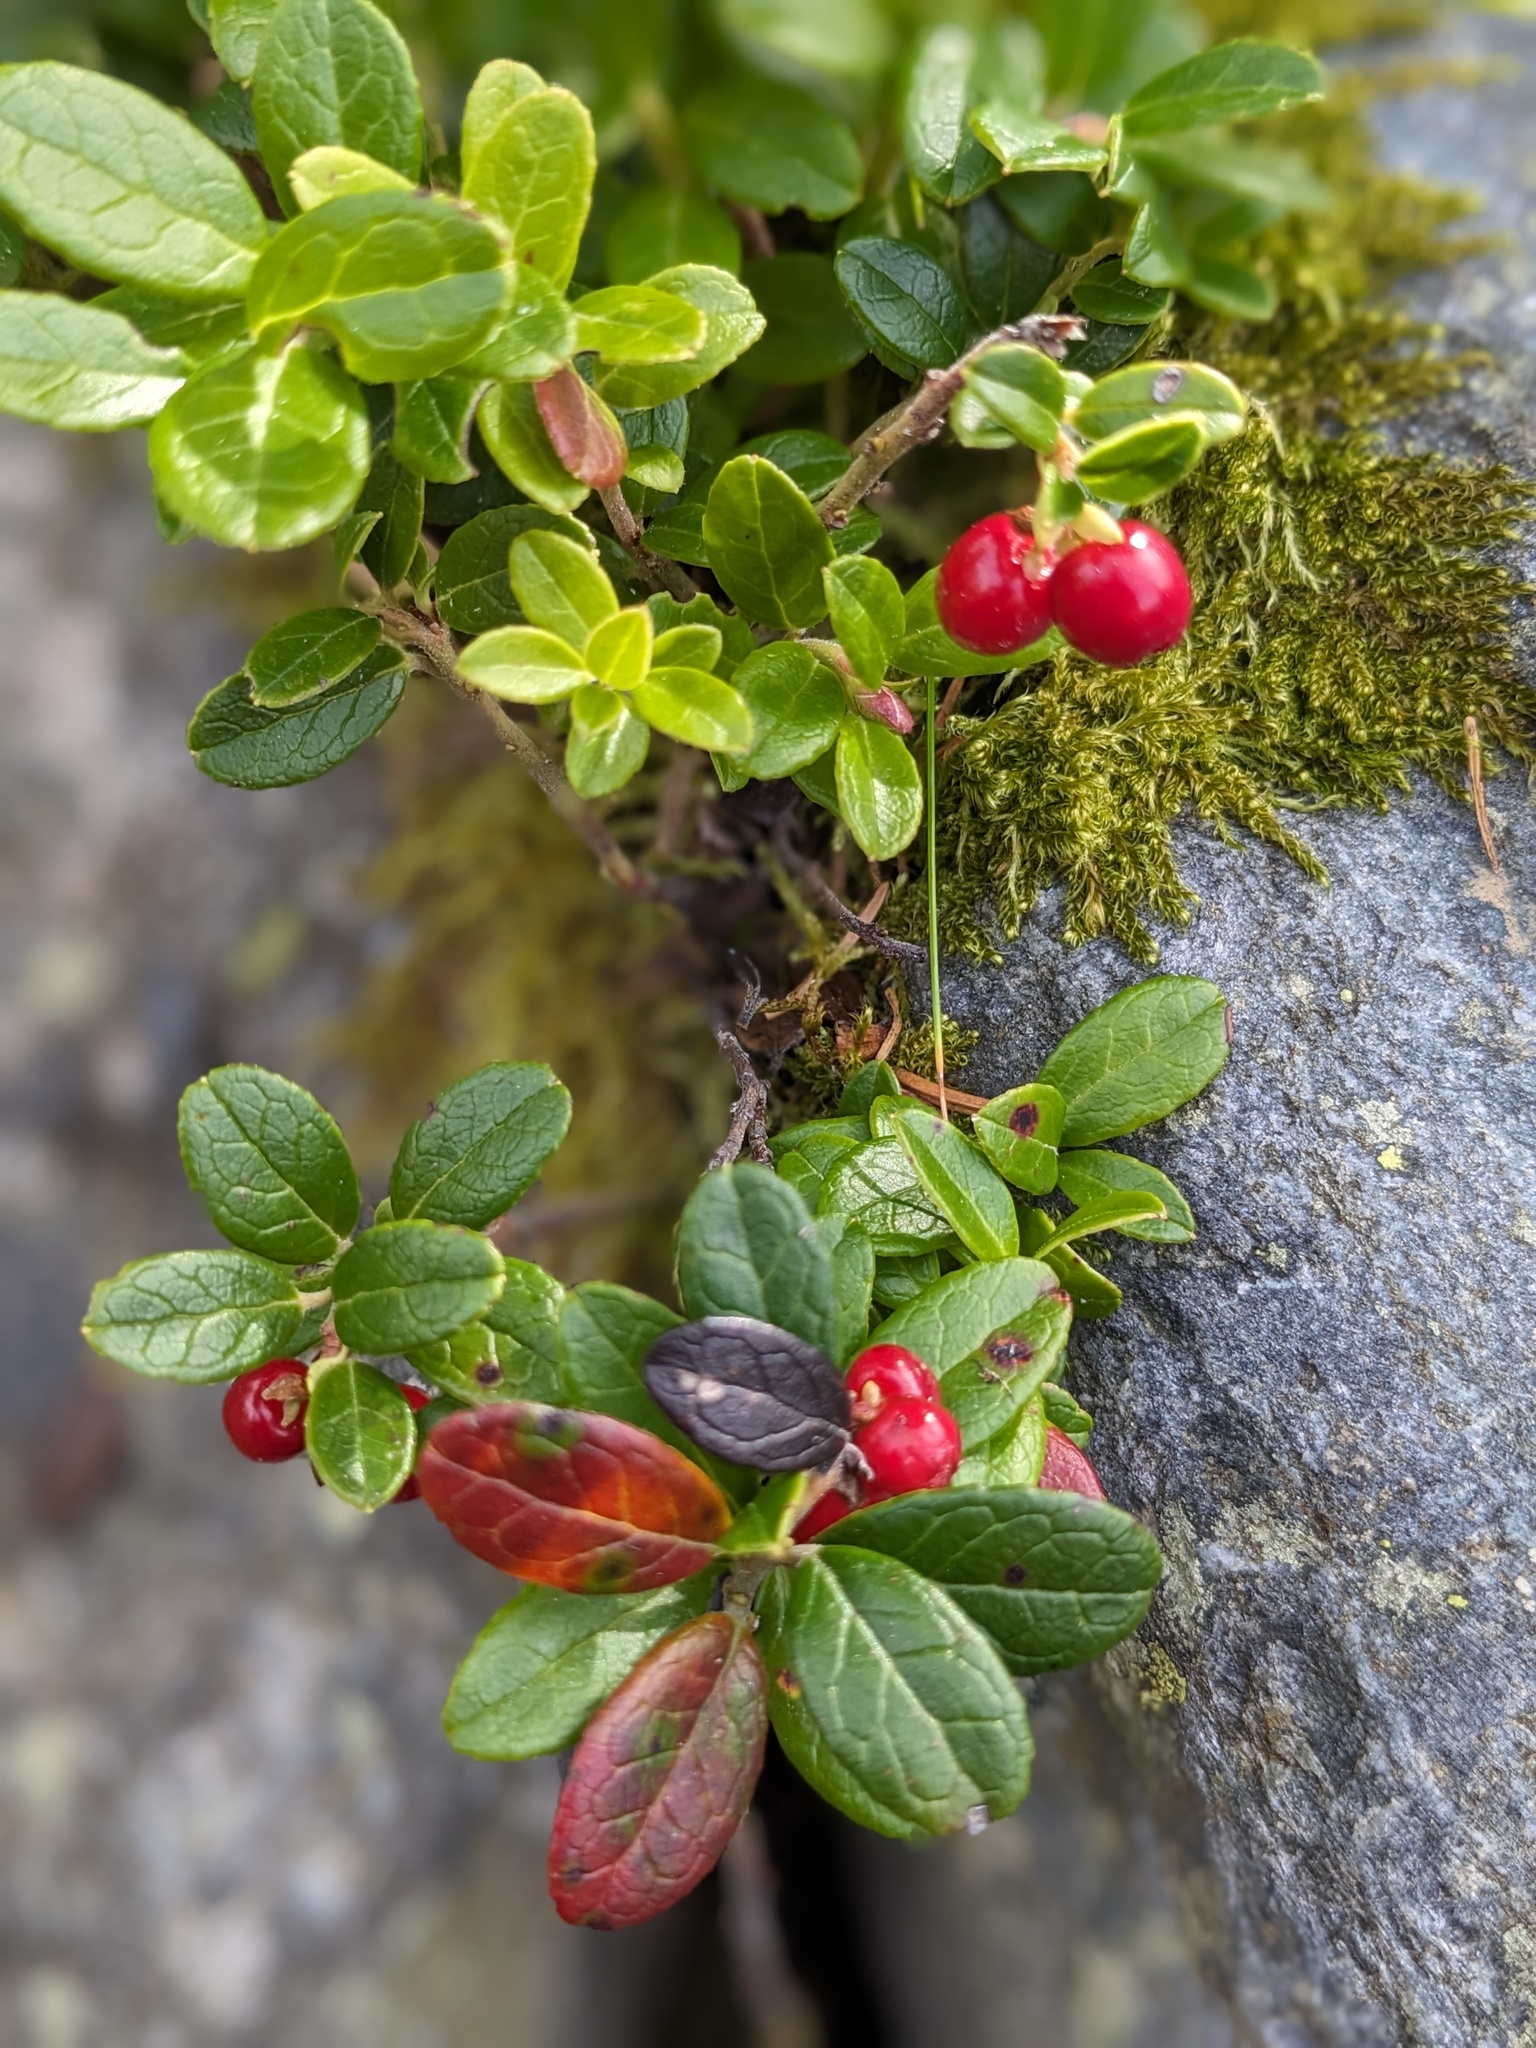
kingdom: Plantae
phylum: Tracheophyta
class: Magnoliopsida
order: Ericales
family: Ericaceae
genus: Vaccinium
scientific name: Vaccinium vitis-idaea
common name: Cowberry
